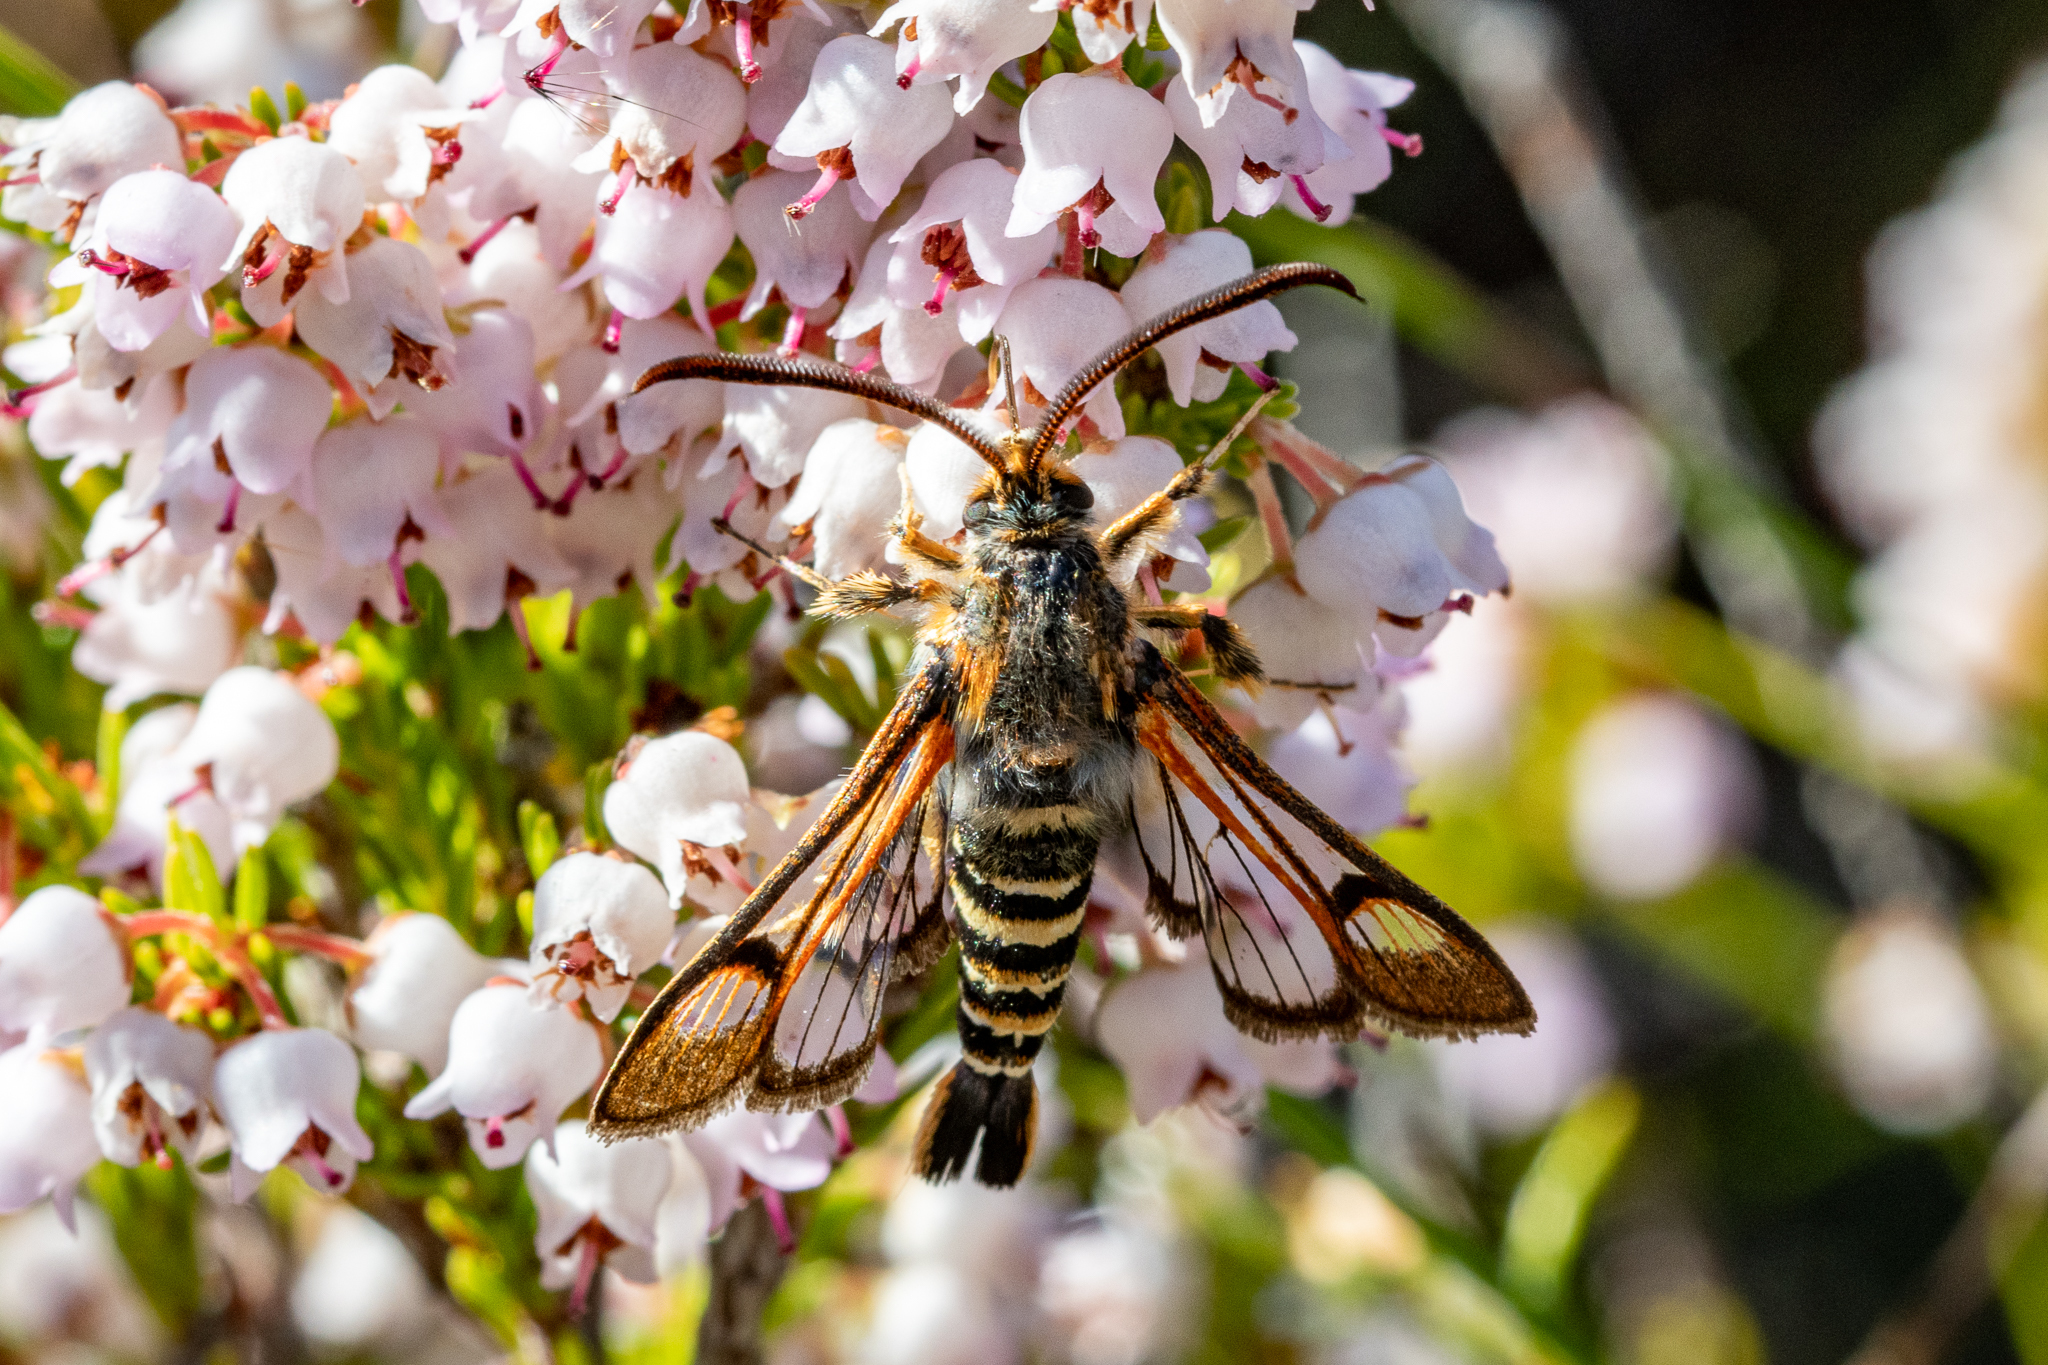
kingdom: Animalia
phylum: Arthropoda
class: Insecta
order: Lepidoptera
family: Sesiidae
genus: Alonina
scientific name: Alonina pyrocraspis
